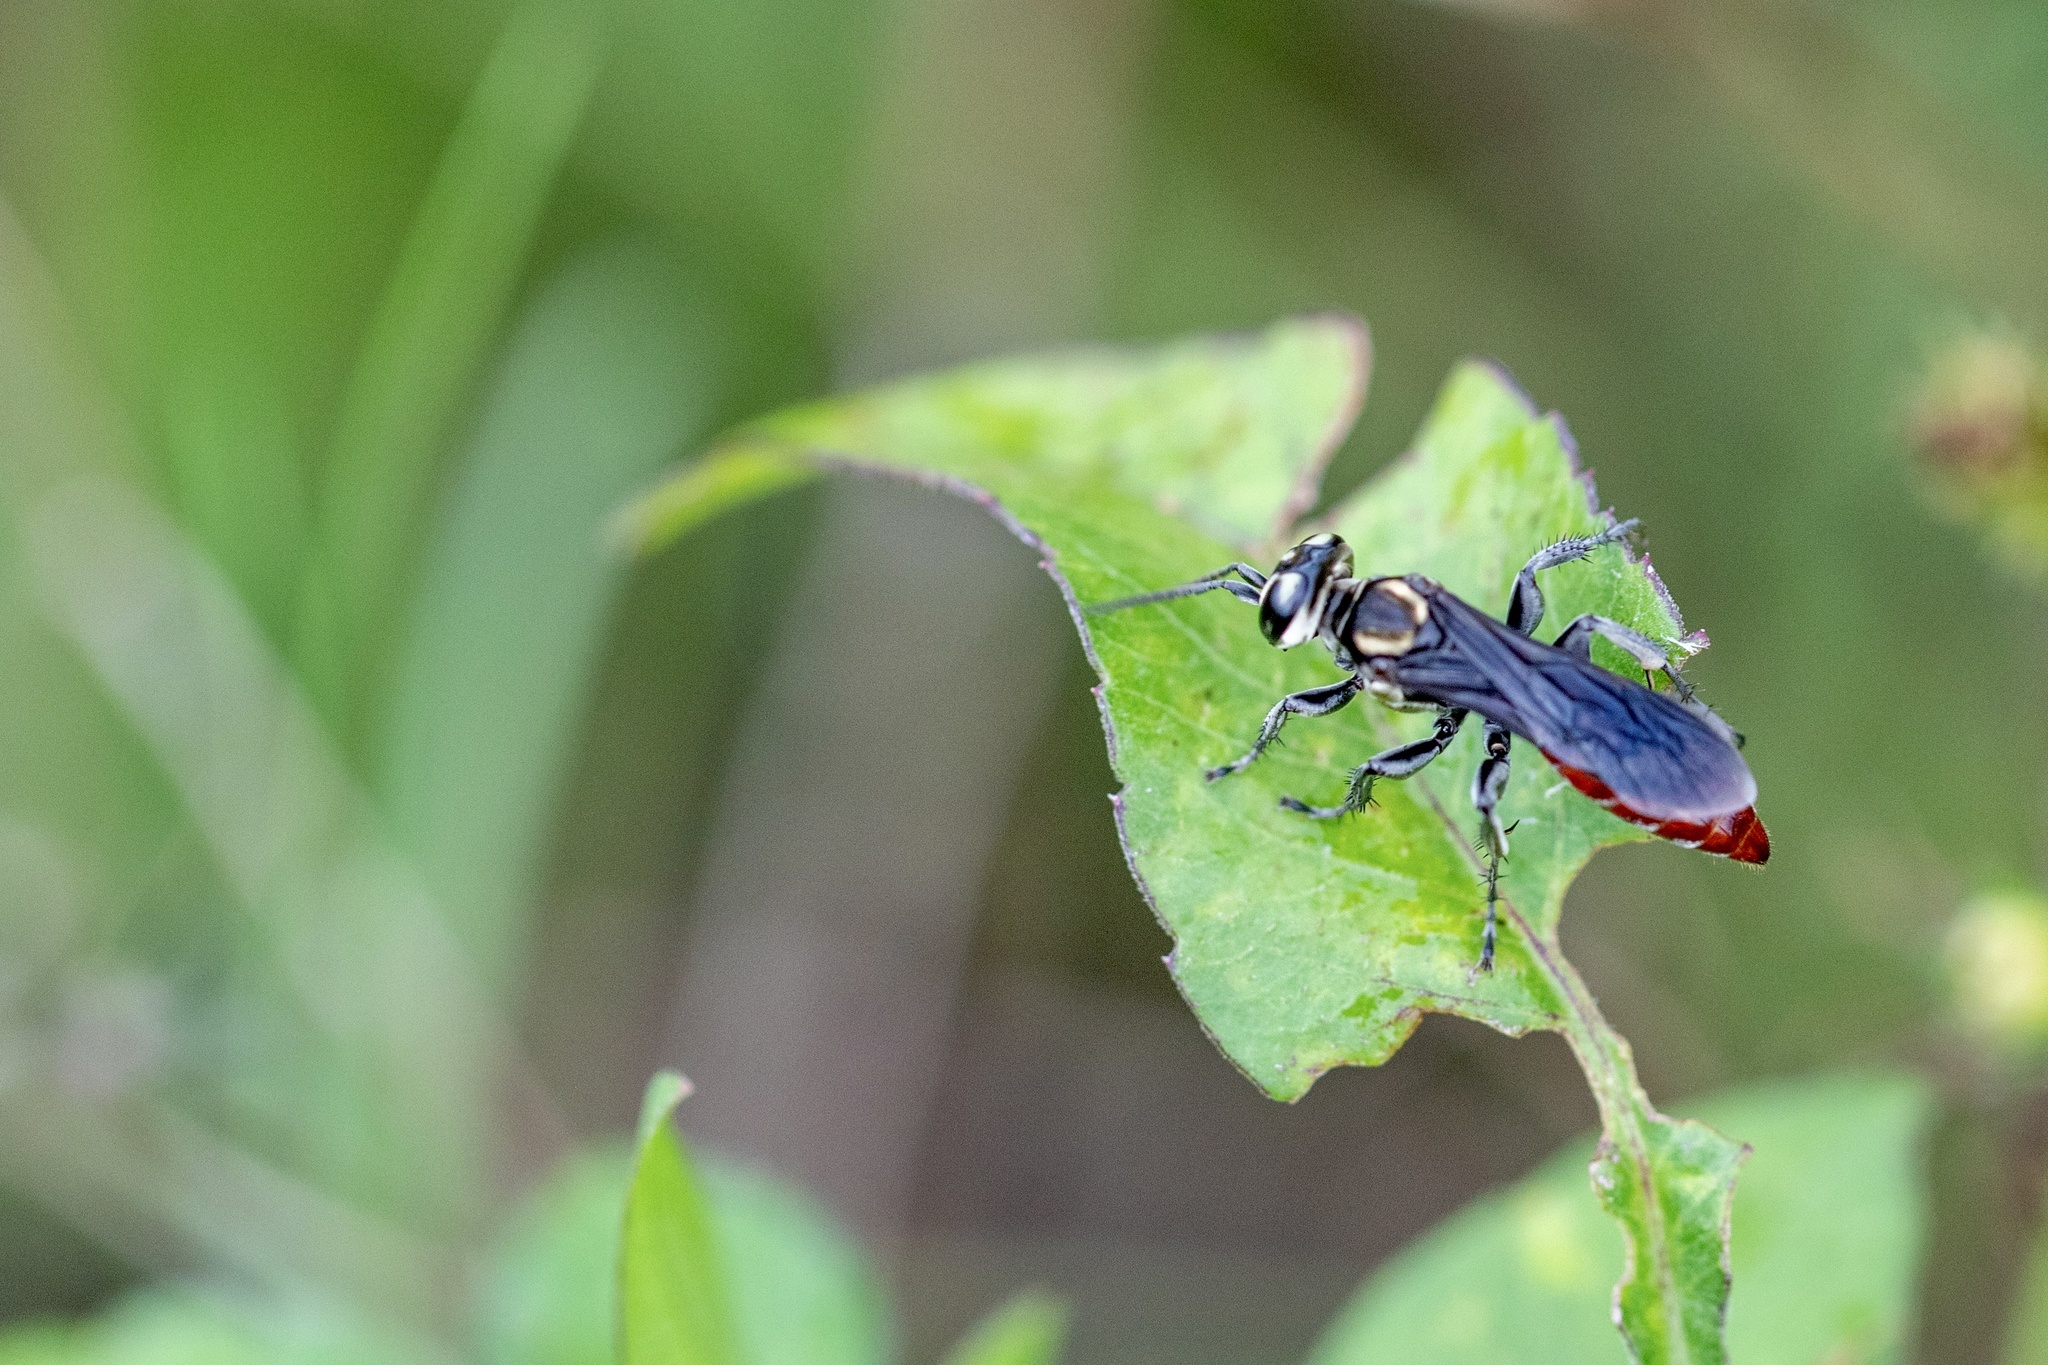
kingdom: Animalia
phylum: Arthropoda
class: Insecta
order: Hymenoptera
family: Crabronidae
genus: Larra
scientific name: Larra bicolor
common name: Wasp
